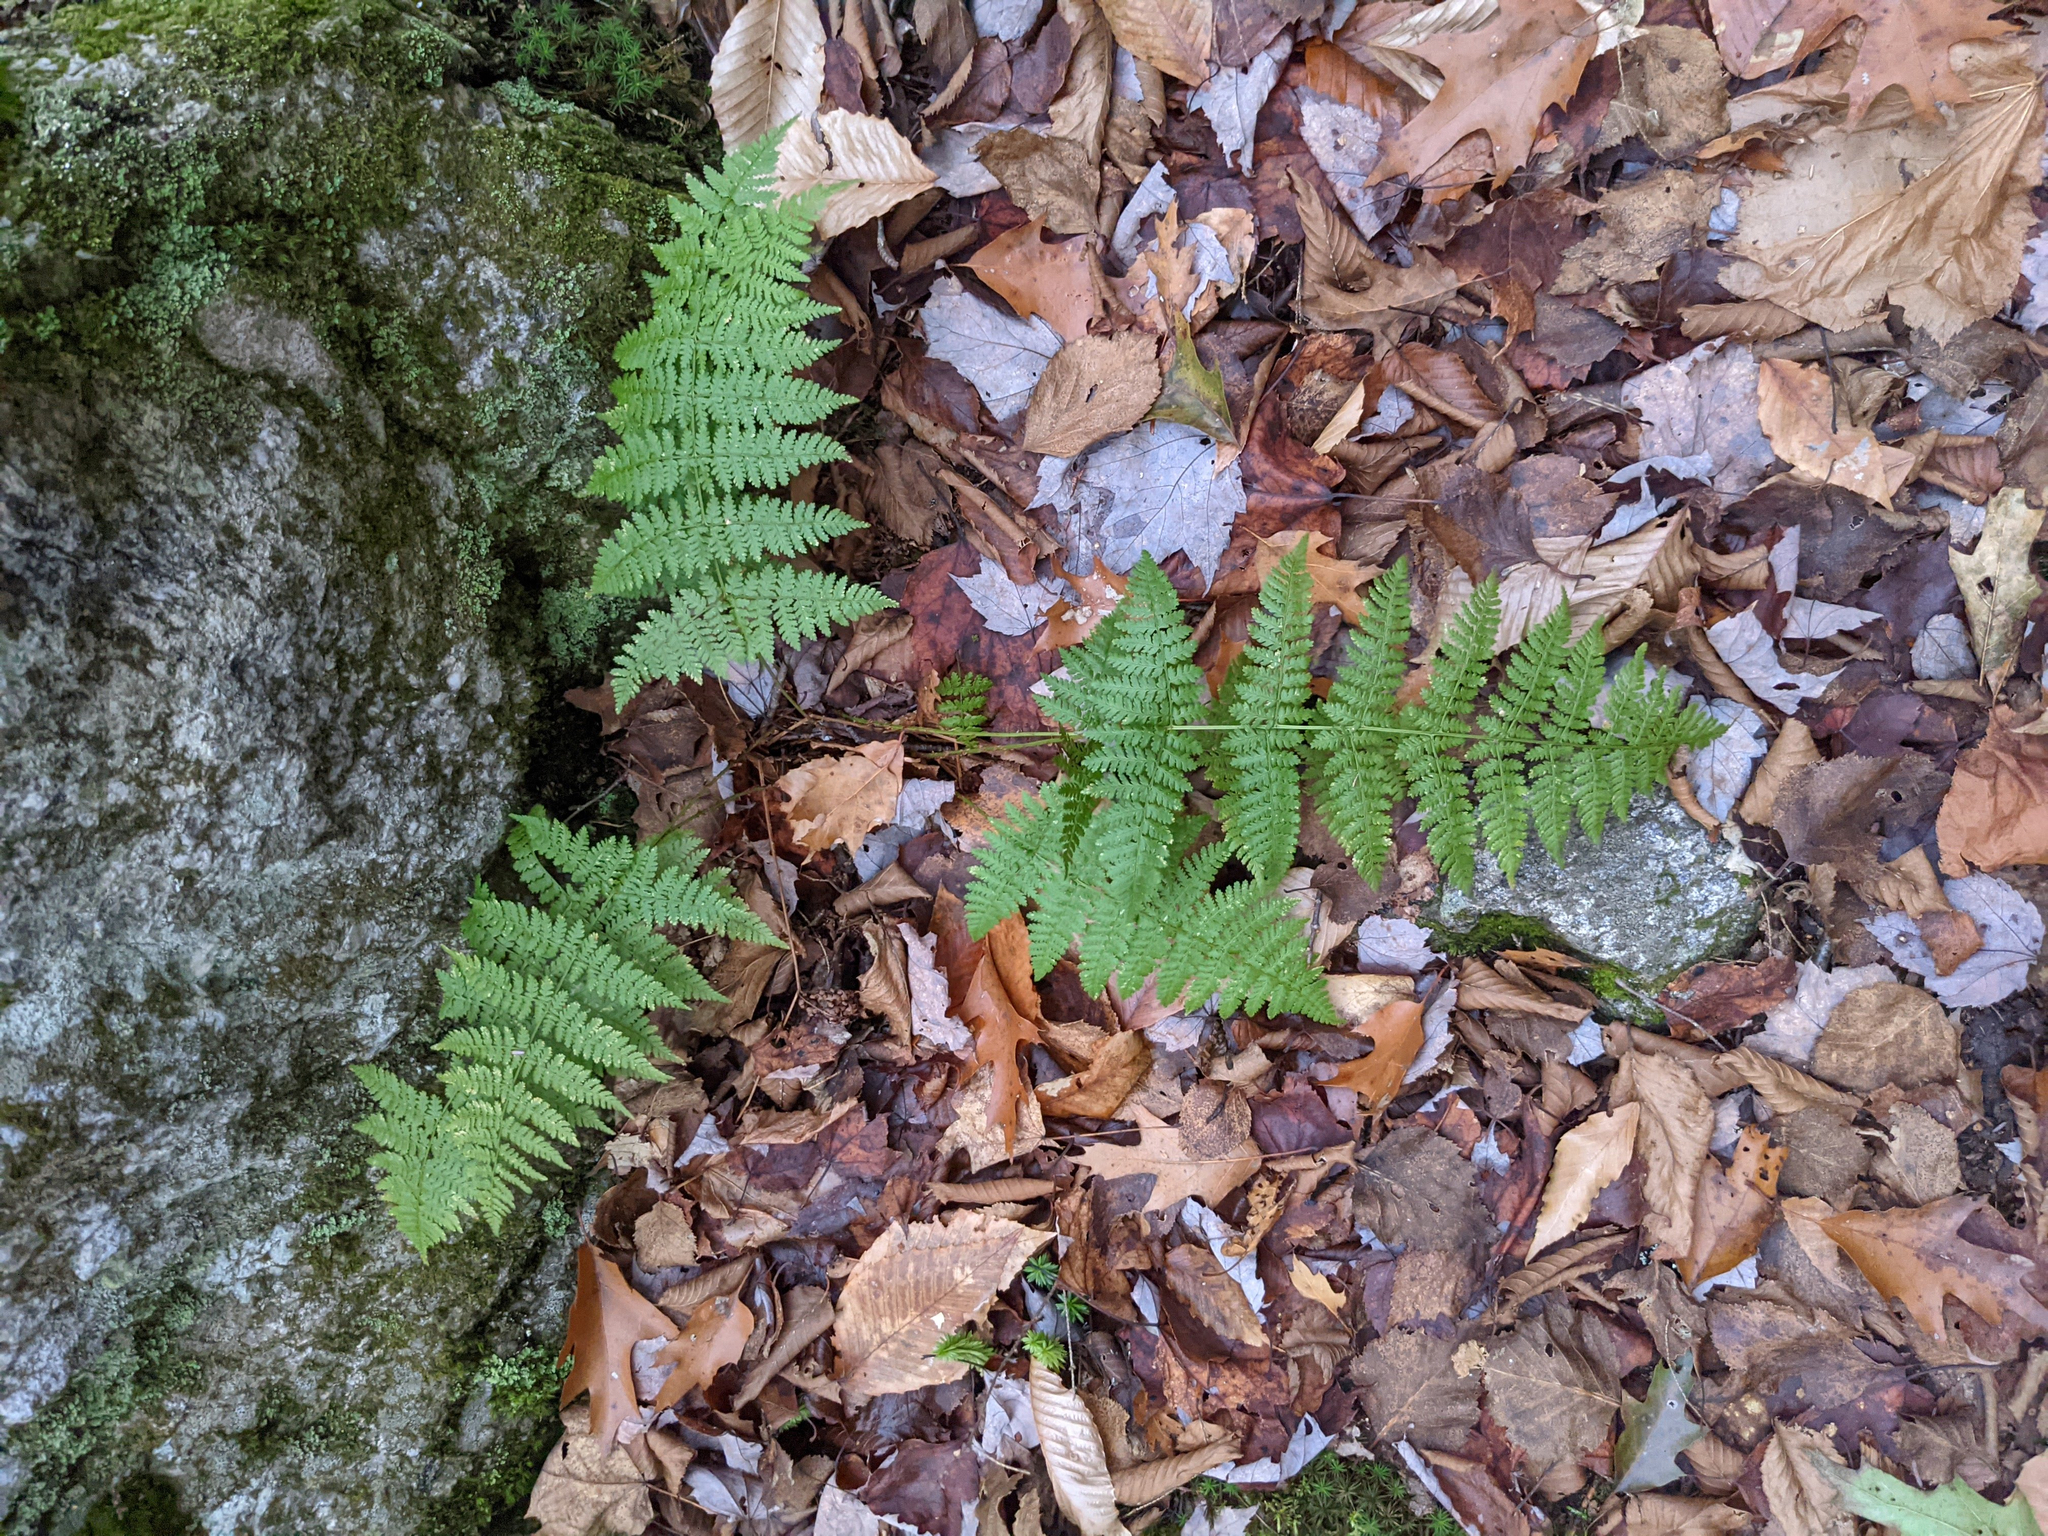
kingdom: Plantae
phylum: Tracheophyta
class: Polypodiopsida
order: Polypodiales
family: Dryopteridaceae
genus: Dryopteris
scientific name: Dryopteris intermedia
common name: Evergreen wood fern
